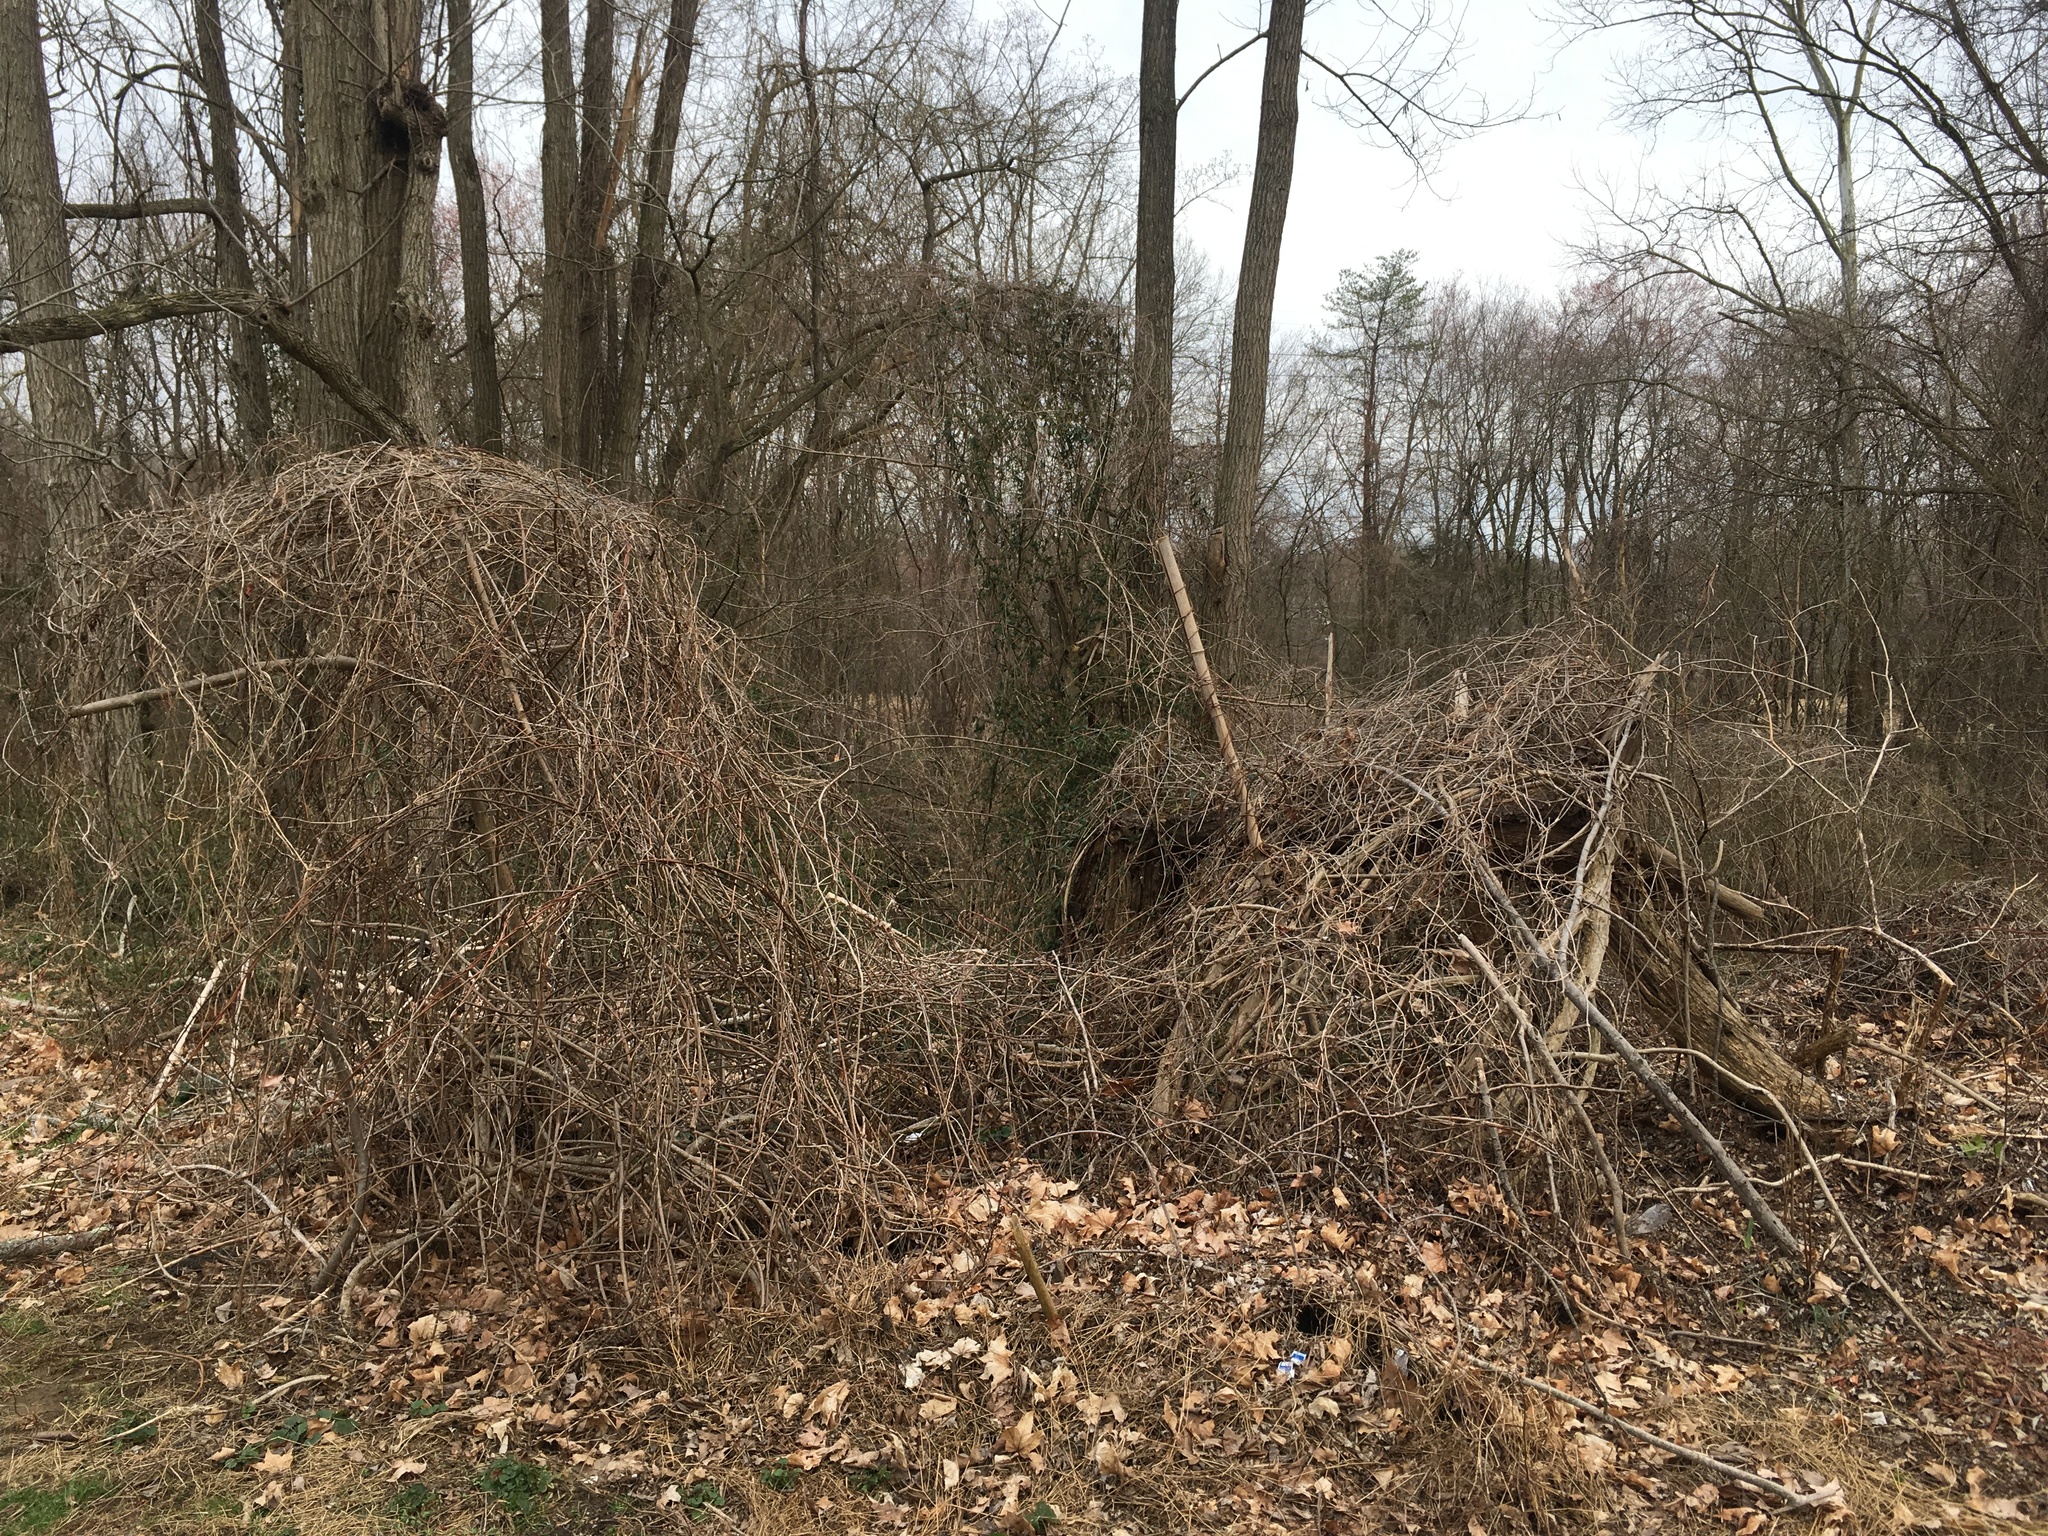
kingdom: Plantae
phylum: Tracheophyta
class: Magnoliopsida
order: Dipsacales
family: Caprifoliaceae
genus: Lonicera
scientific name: Lonicera japonica
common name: Japanese honeysuckle
